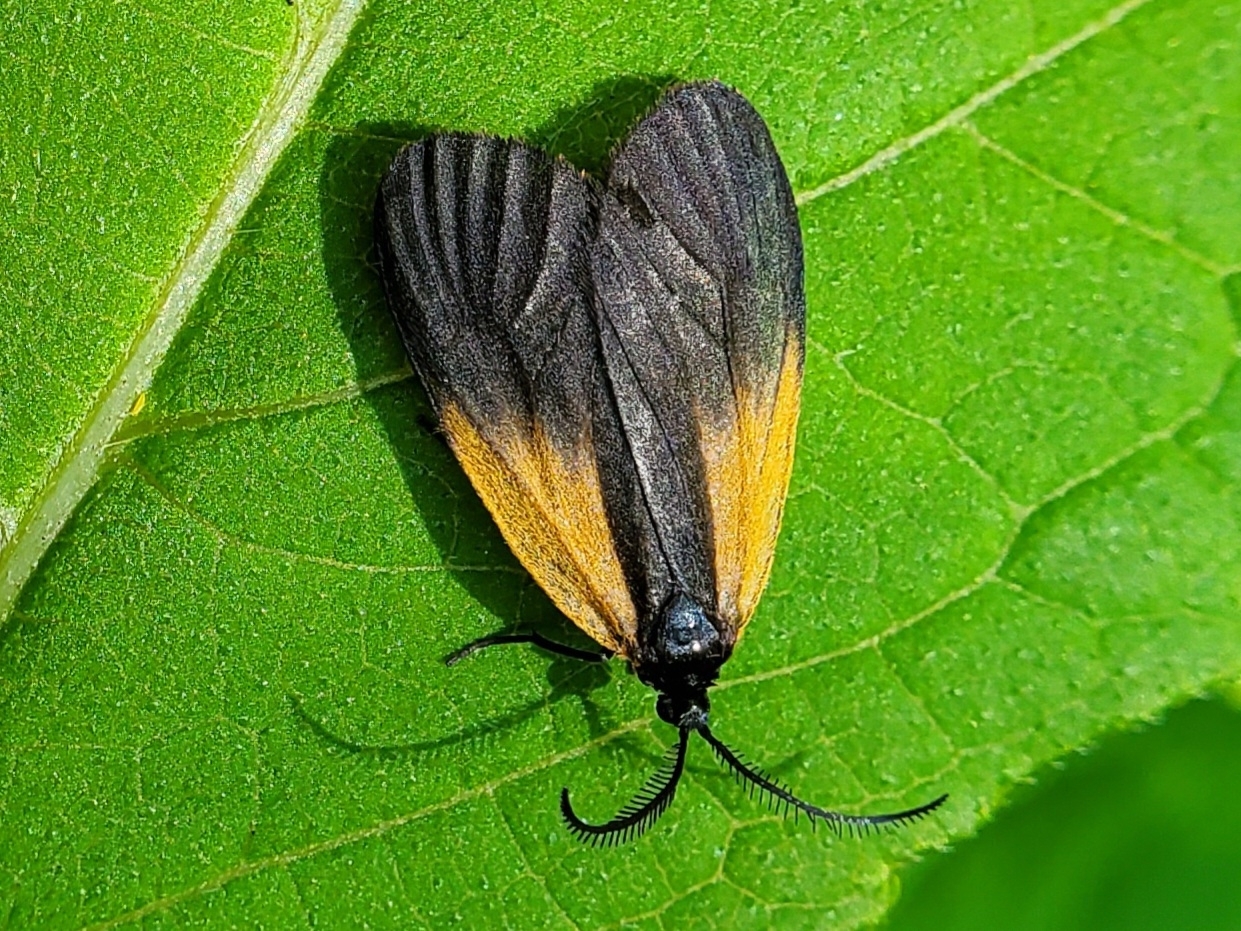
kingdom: Animalia
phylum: Arthropoda
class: Insecta
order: Lepidoptera
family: Zygaenidae
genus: Malthaca
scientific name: Malthaca dimidiata
